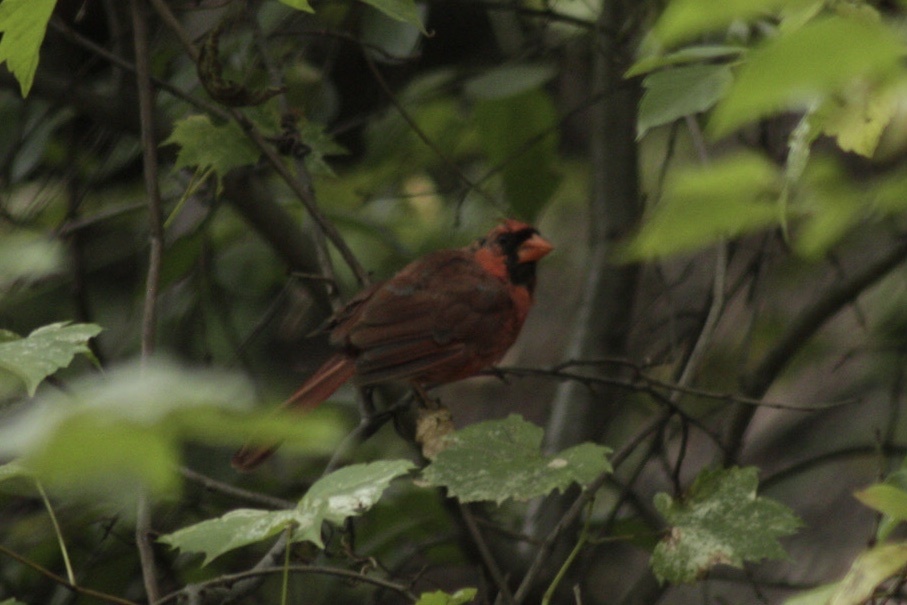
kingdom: Animalia
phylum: Chordata
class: Aves
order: Passeriformes
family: Cardinalidae
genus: Cardinalis
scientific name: Cardinalis cardinalis
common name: Northern cardinal
